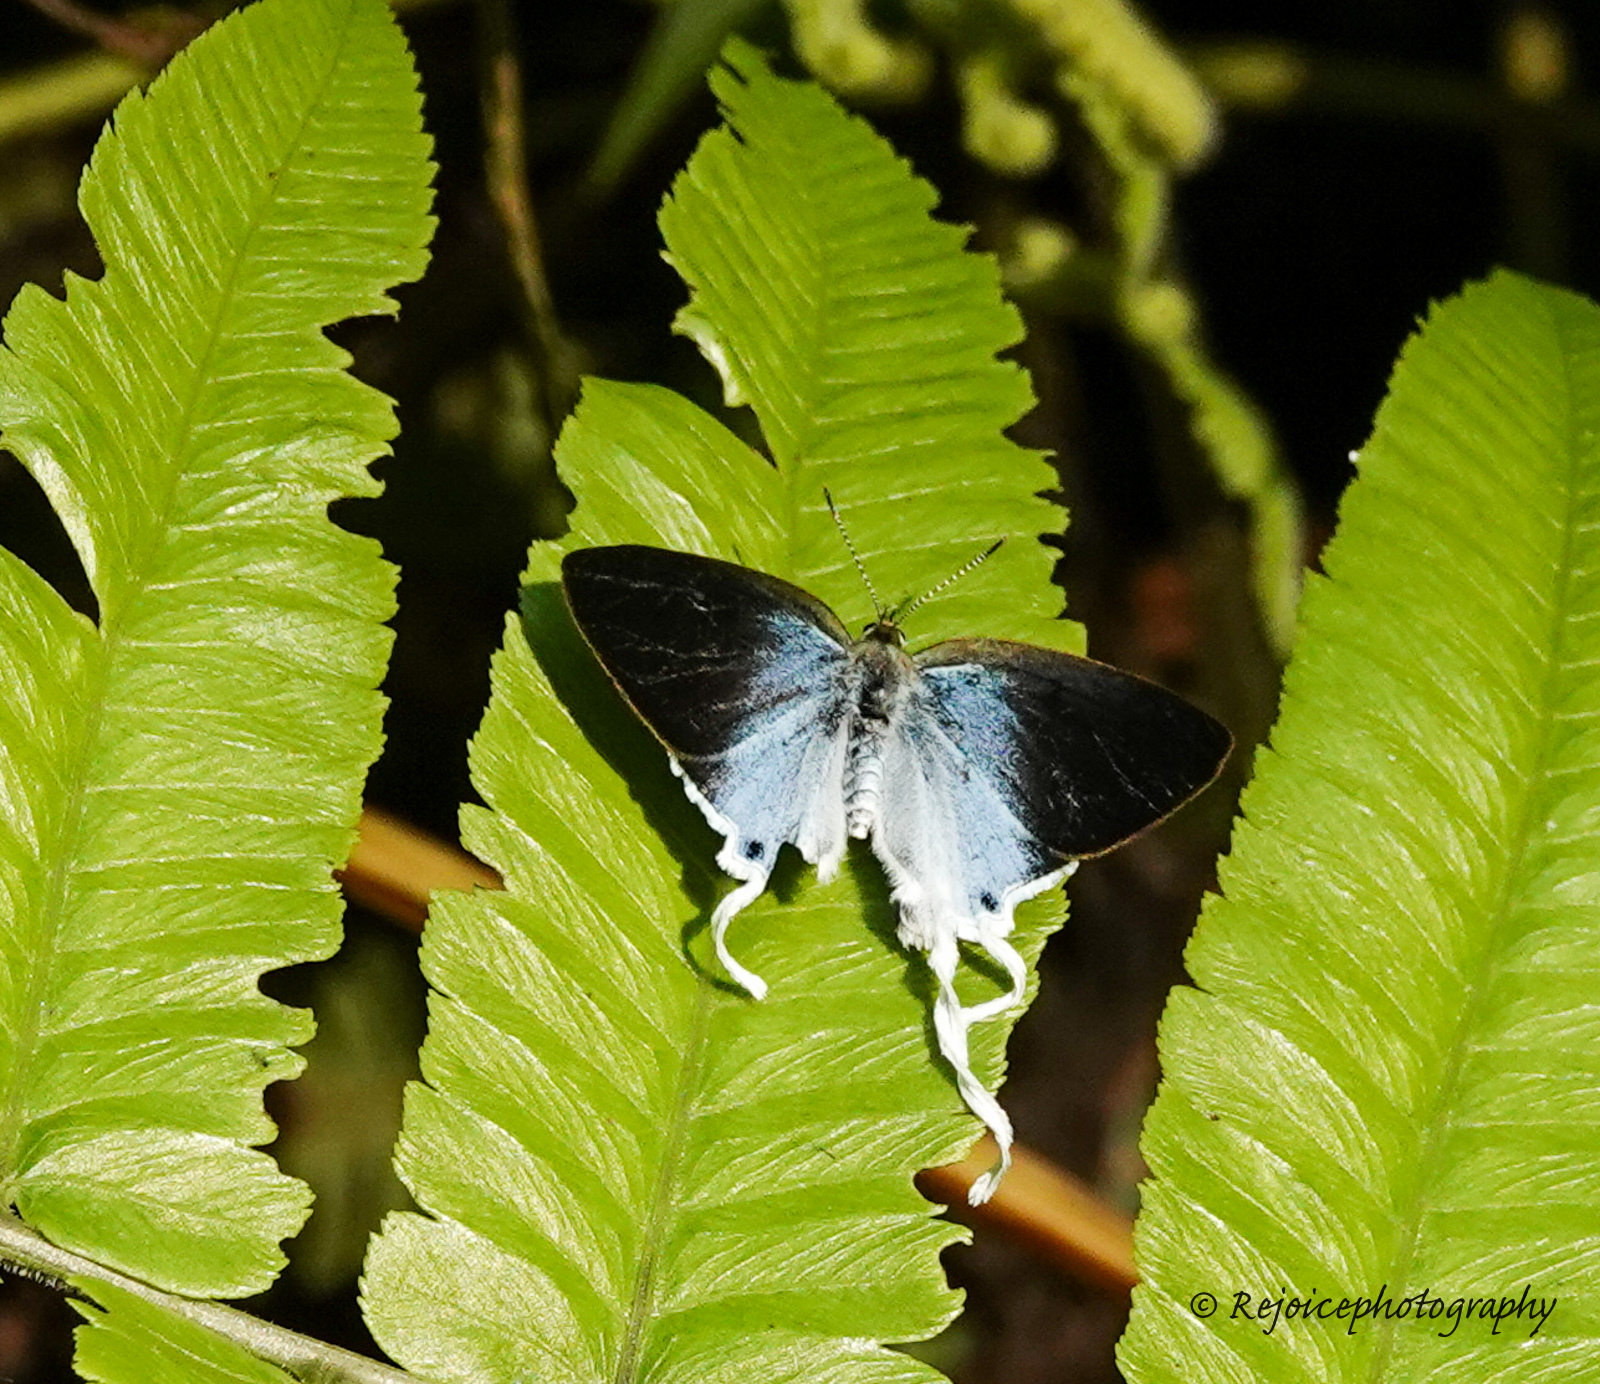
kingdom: Animalia
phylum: Arthropoda
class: Insecta
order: Lepidoptera
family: Lycaenidae
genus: Zeltus
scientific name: Zeltus amasa
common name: Fluffy tit
